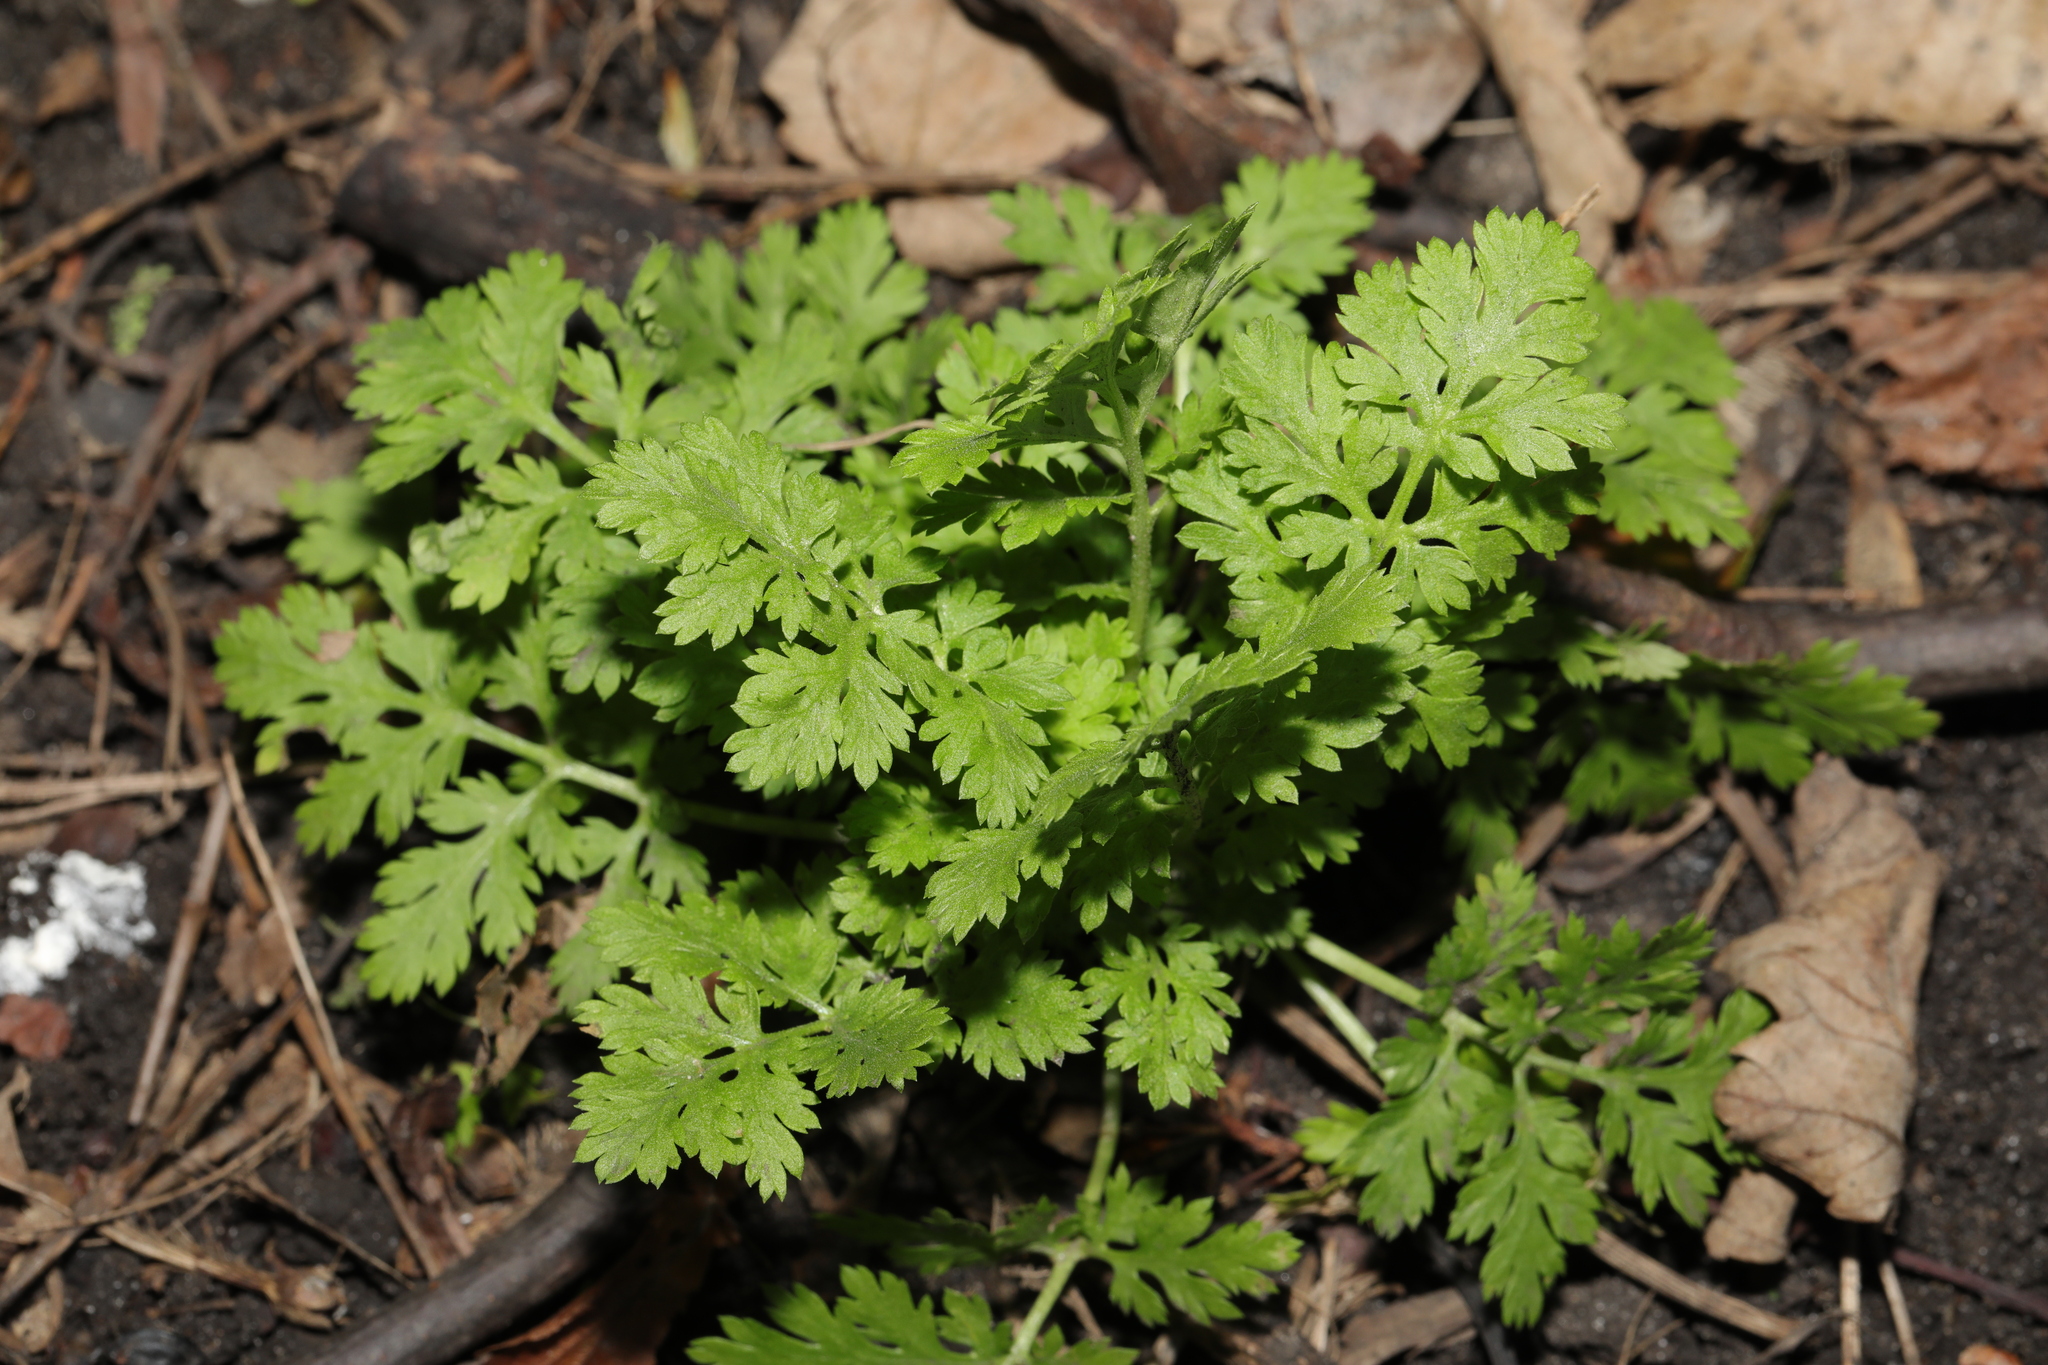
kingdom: Plantae
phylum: Tracheophyta
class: Magnoliopsida
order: Asterales
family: Asteraceae
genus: Tanacetum
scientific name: Tanacetum parthenium
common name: Feverfew
